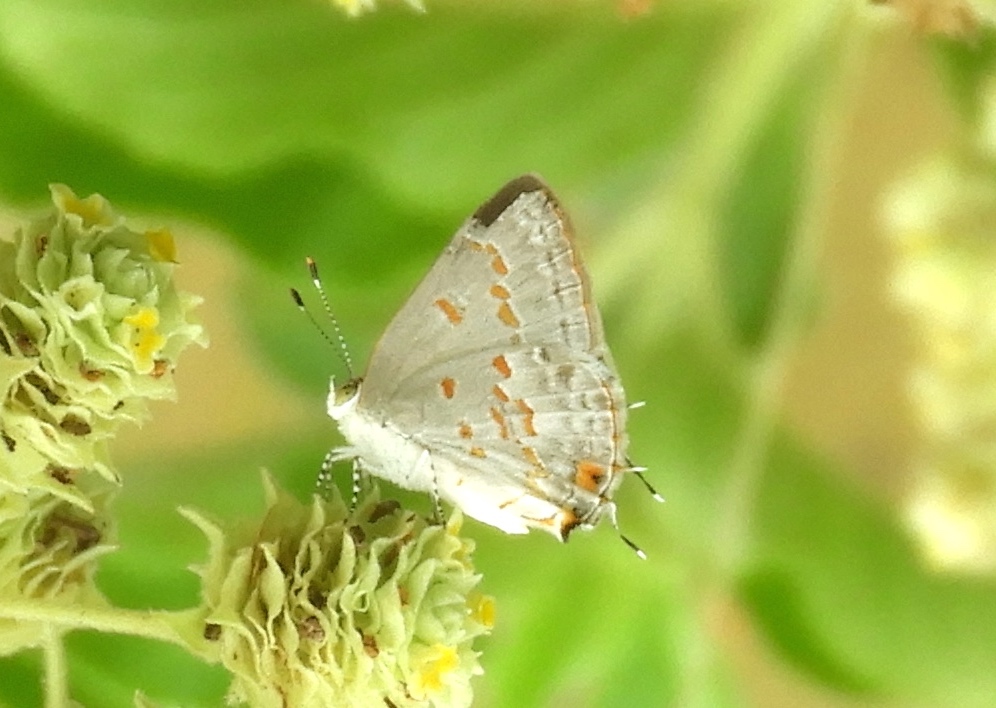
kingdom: Animalia
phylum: Arthropoda
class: Insecta
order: Lepidoptera
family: Lycaenidae
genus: Ministrymon
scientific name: Ministrymon clytie
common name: Clytie ministreak
